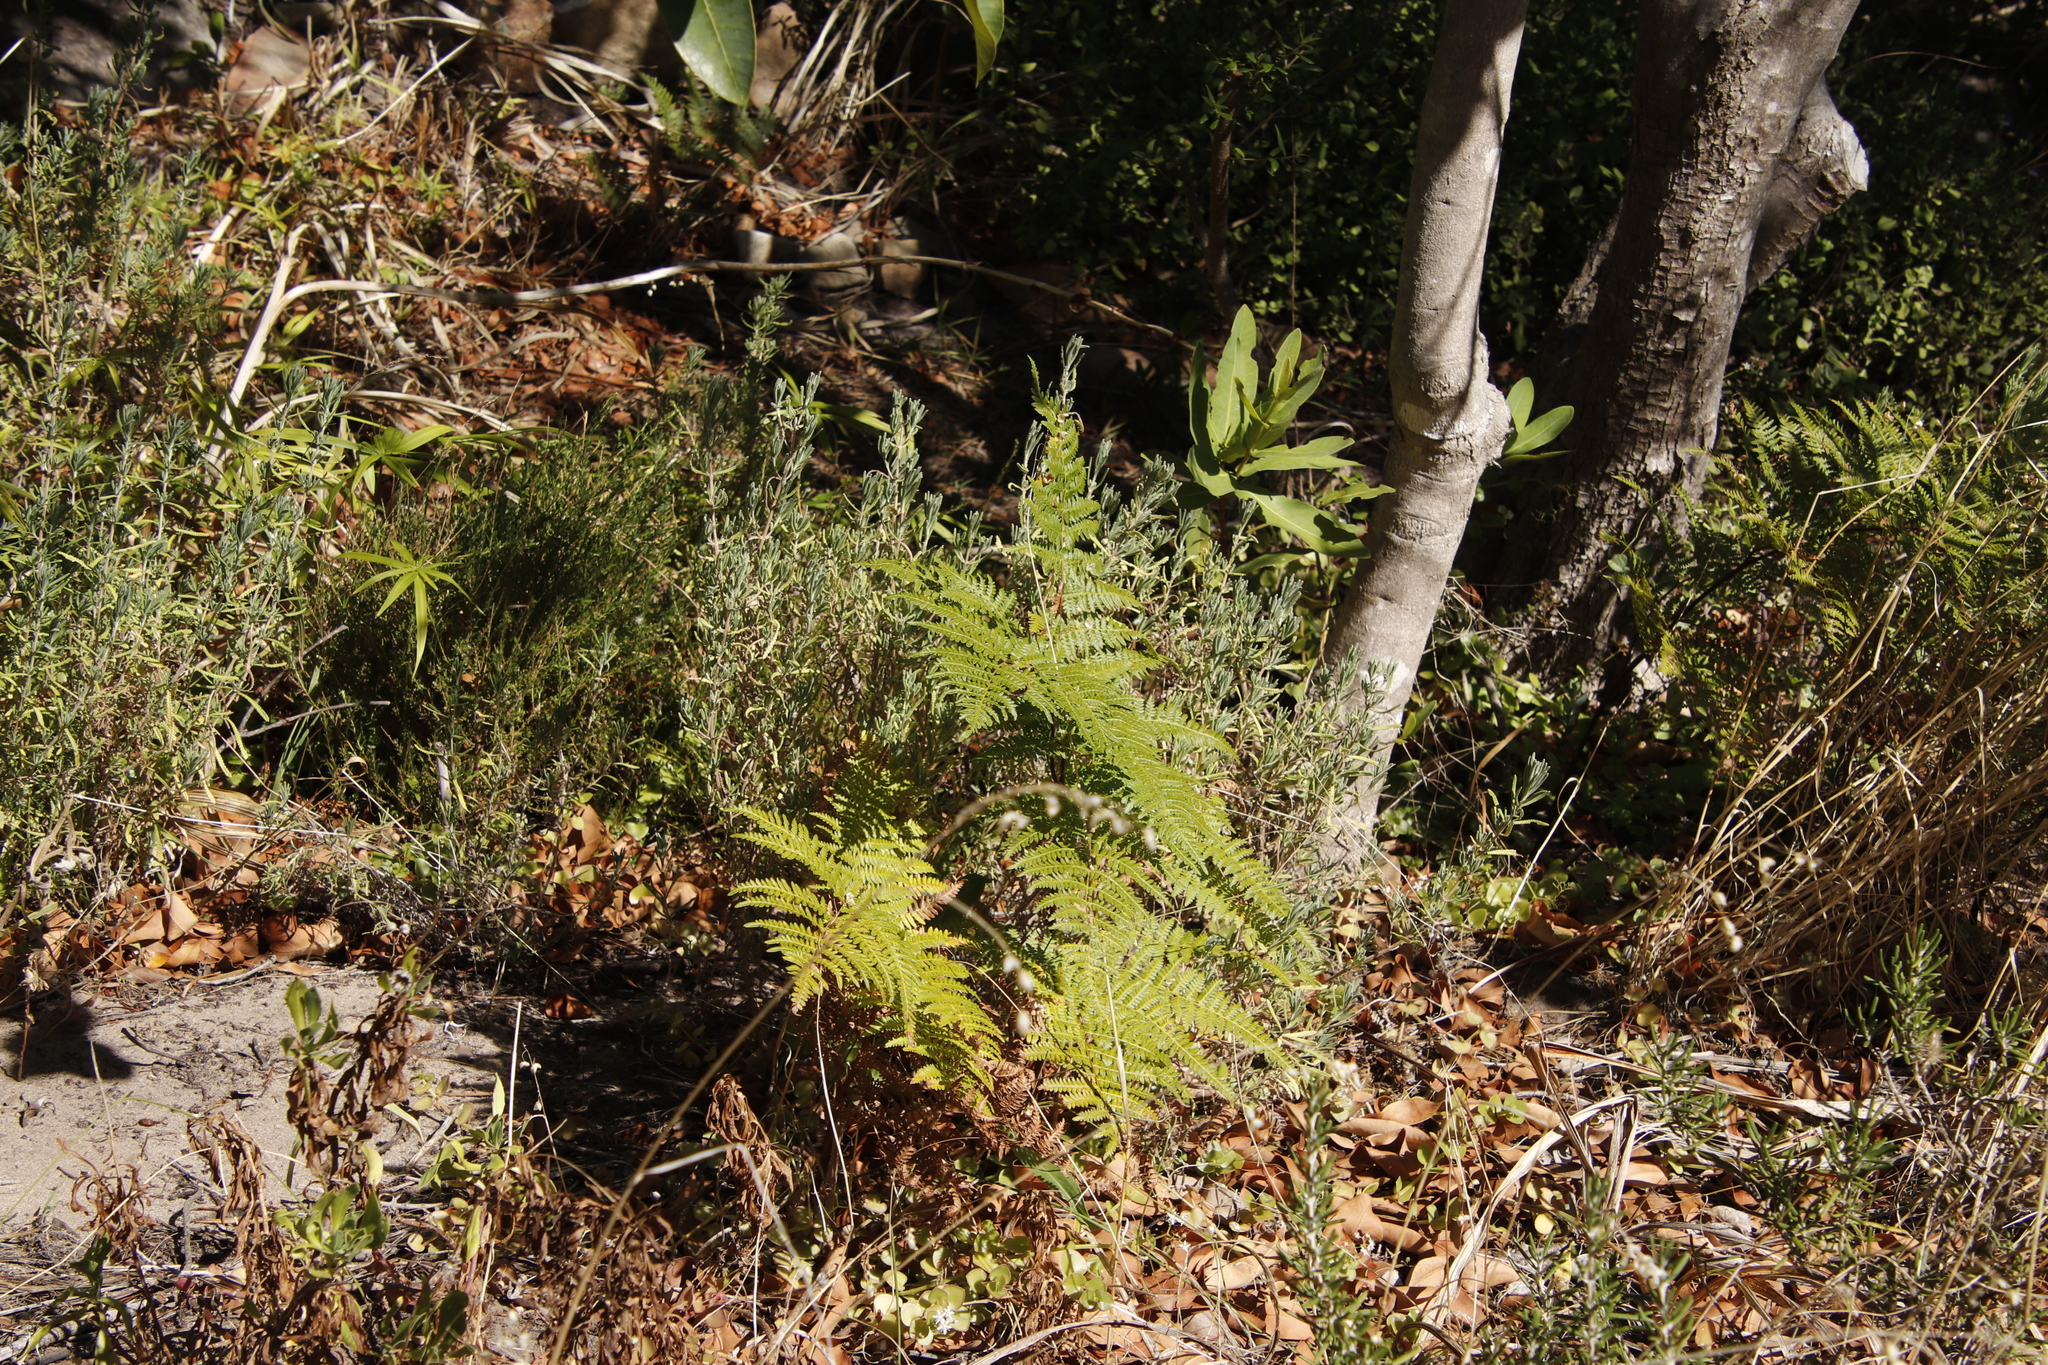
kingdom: Plantae
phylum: Tracheophyta
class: Polypodiopsida
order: Polypodiales
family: Dennstaedtiaceae
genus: Pteridium
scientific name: Pteridium aquilinum
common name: Bracken
